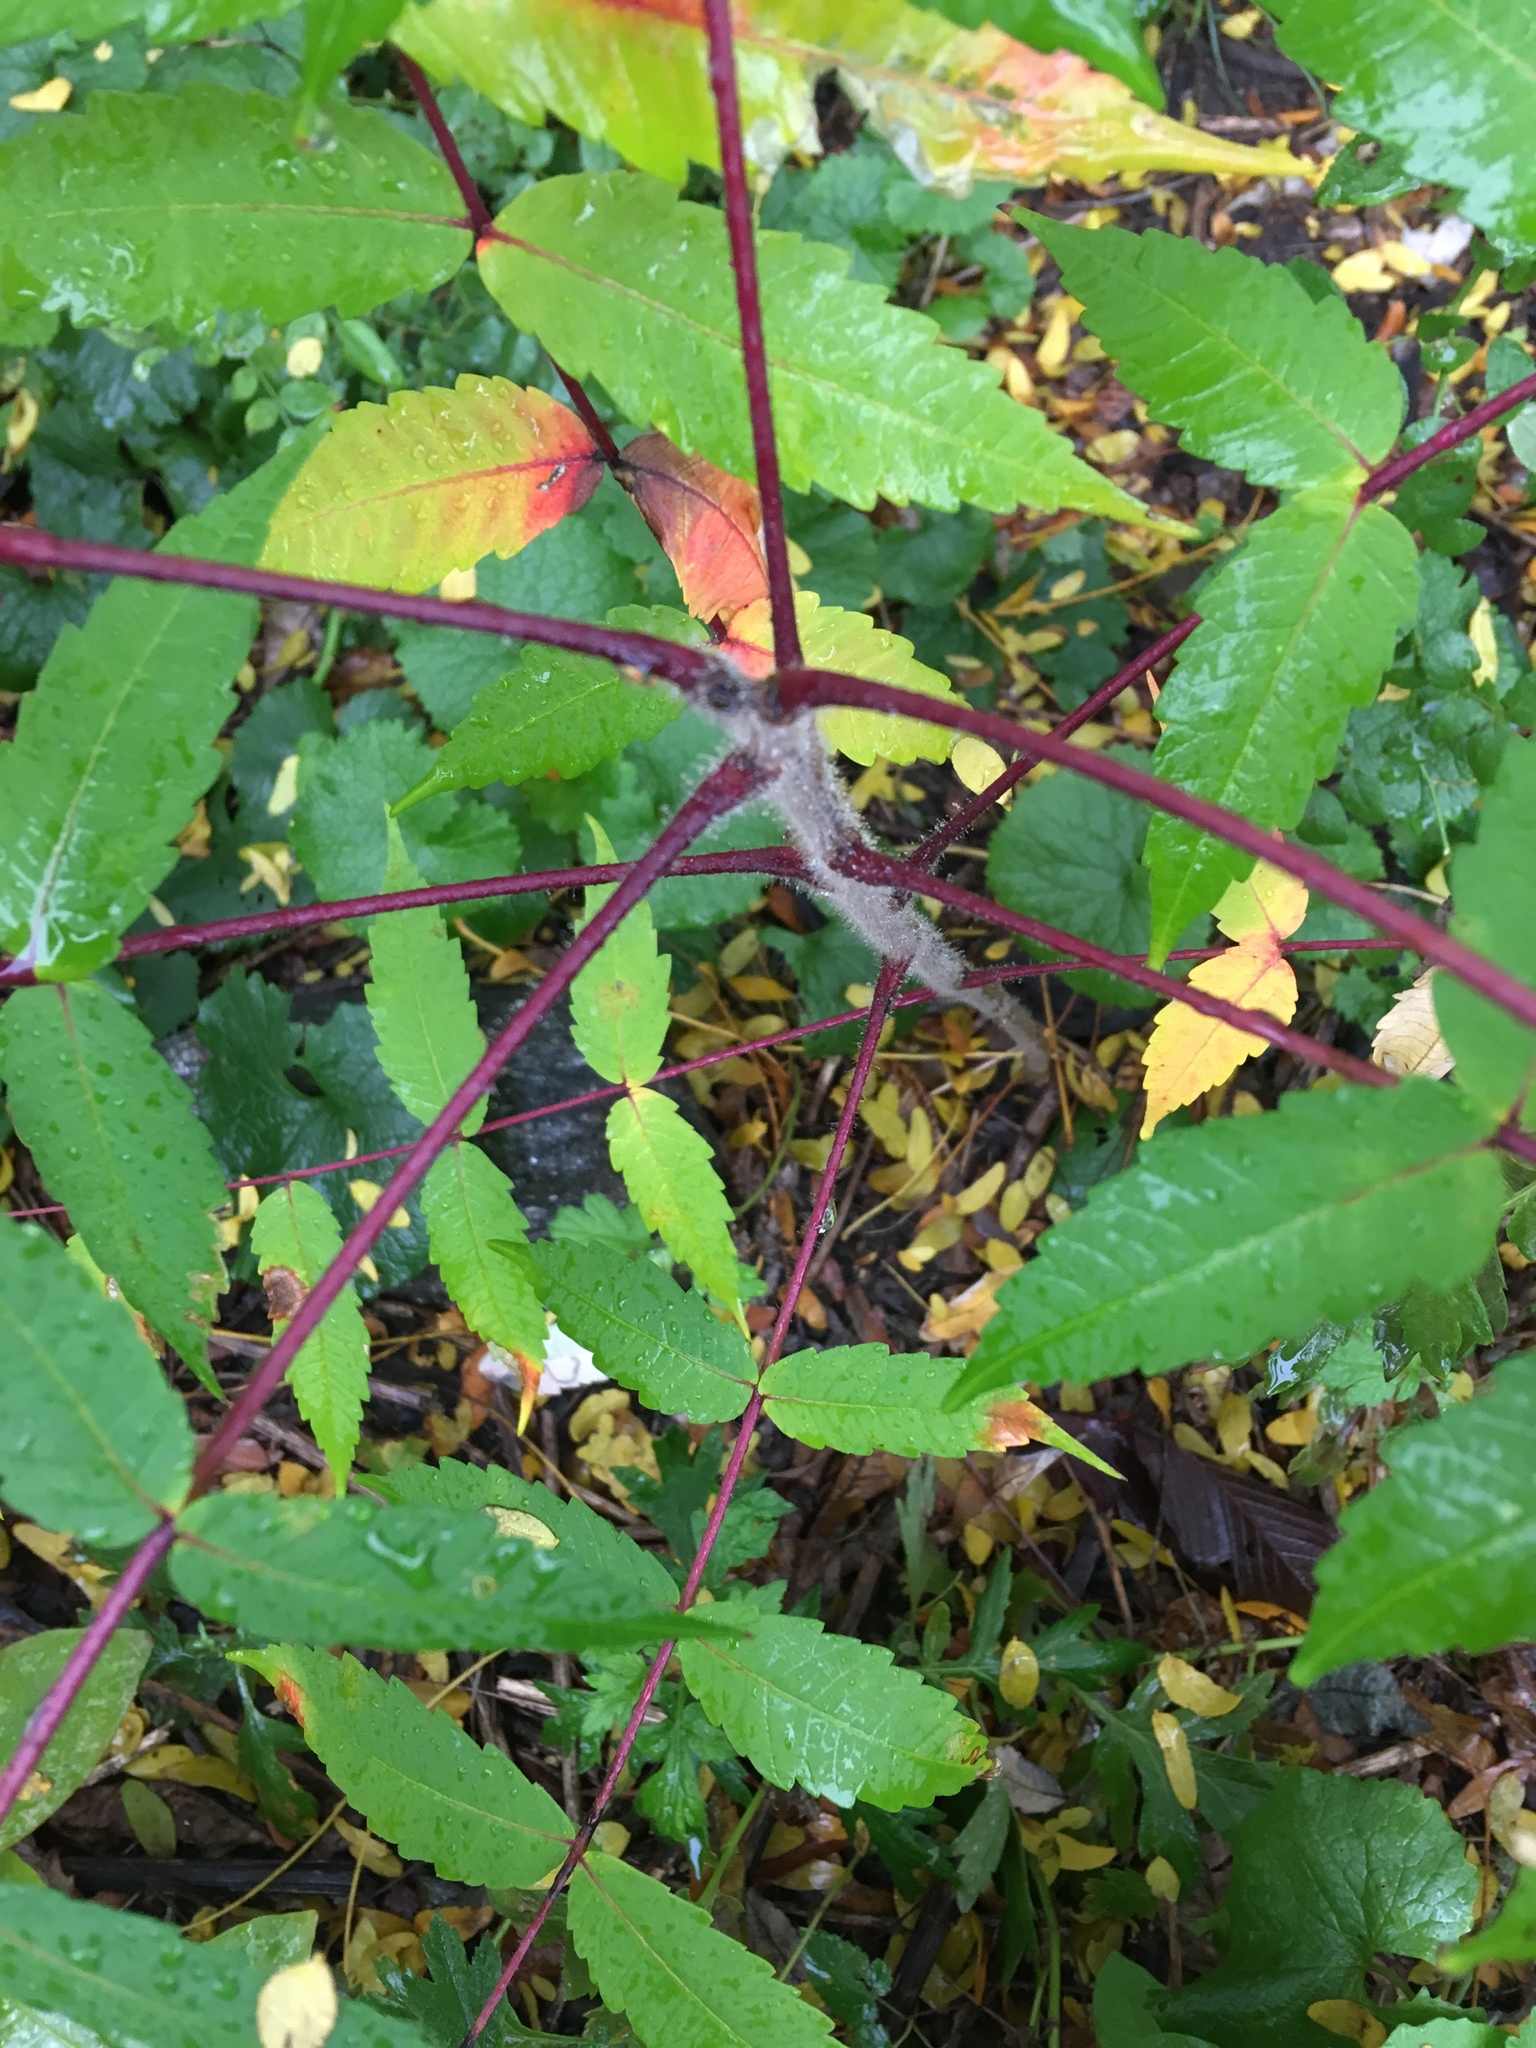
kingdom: Plantae
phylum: Tracheophyta
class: Magnoliopsida
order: Sapindales
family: Anacardiaceae
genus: Rhus
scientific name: Rhus typhina
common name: Staghorn sumac
